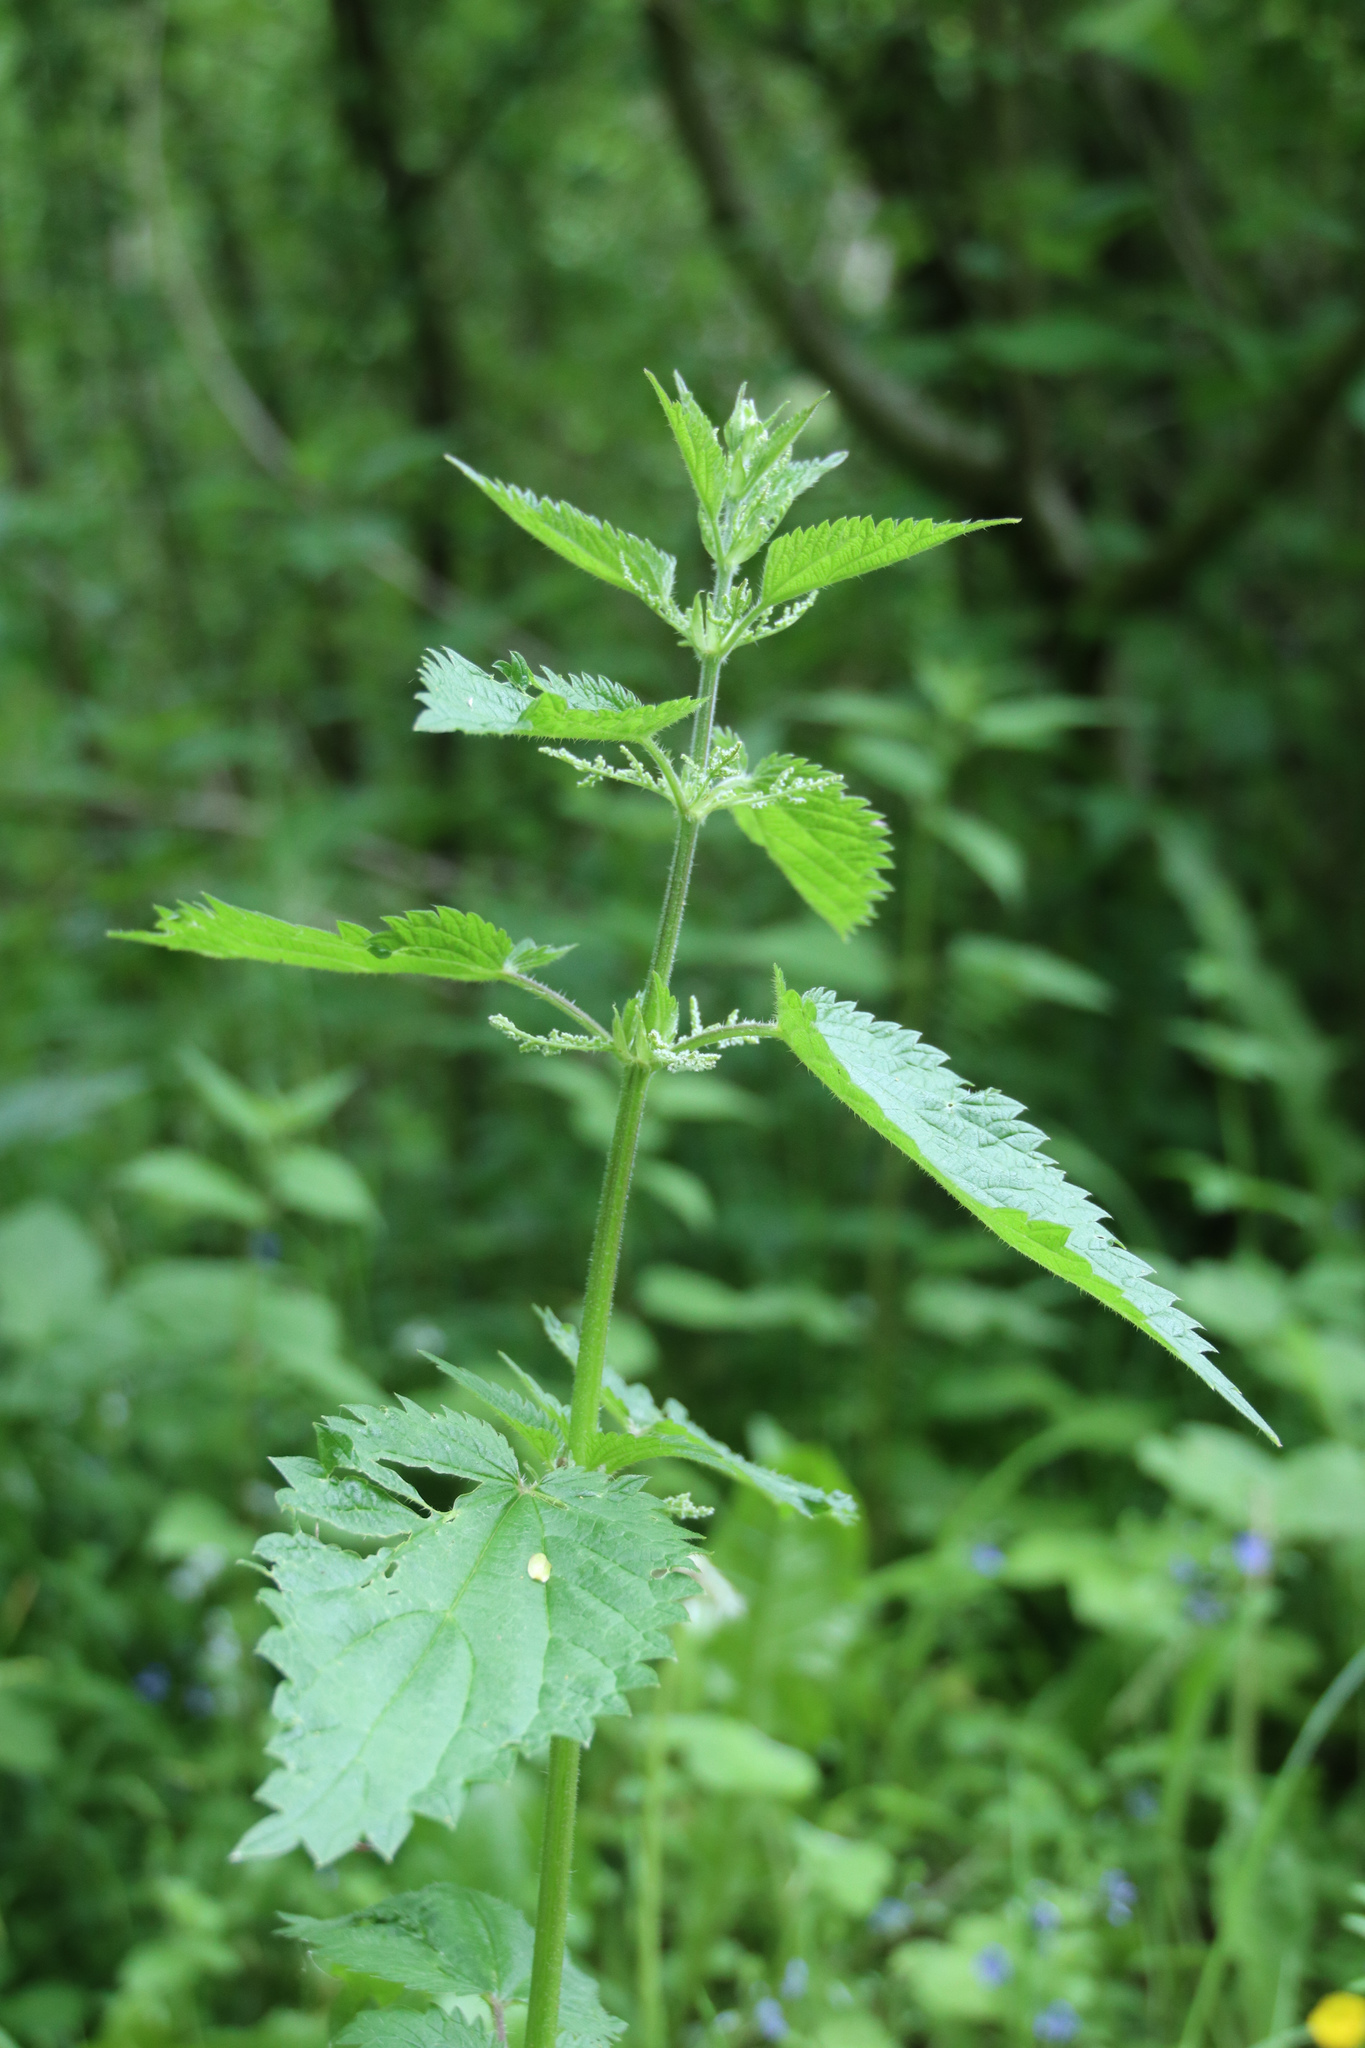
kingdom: Plantae
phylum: Tracheophyta
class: Magnoliopsida
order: Rosales
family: Urticaceae
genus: Urtica
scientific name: Urtica dioica
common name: Common nettle
